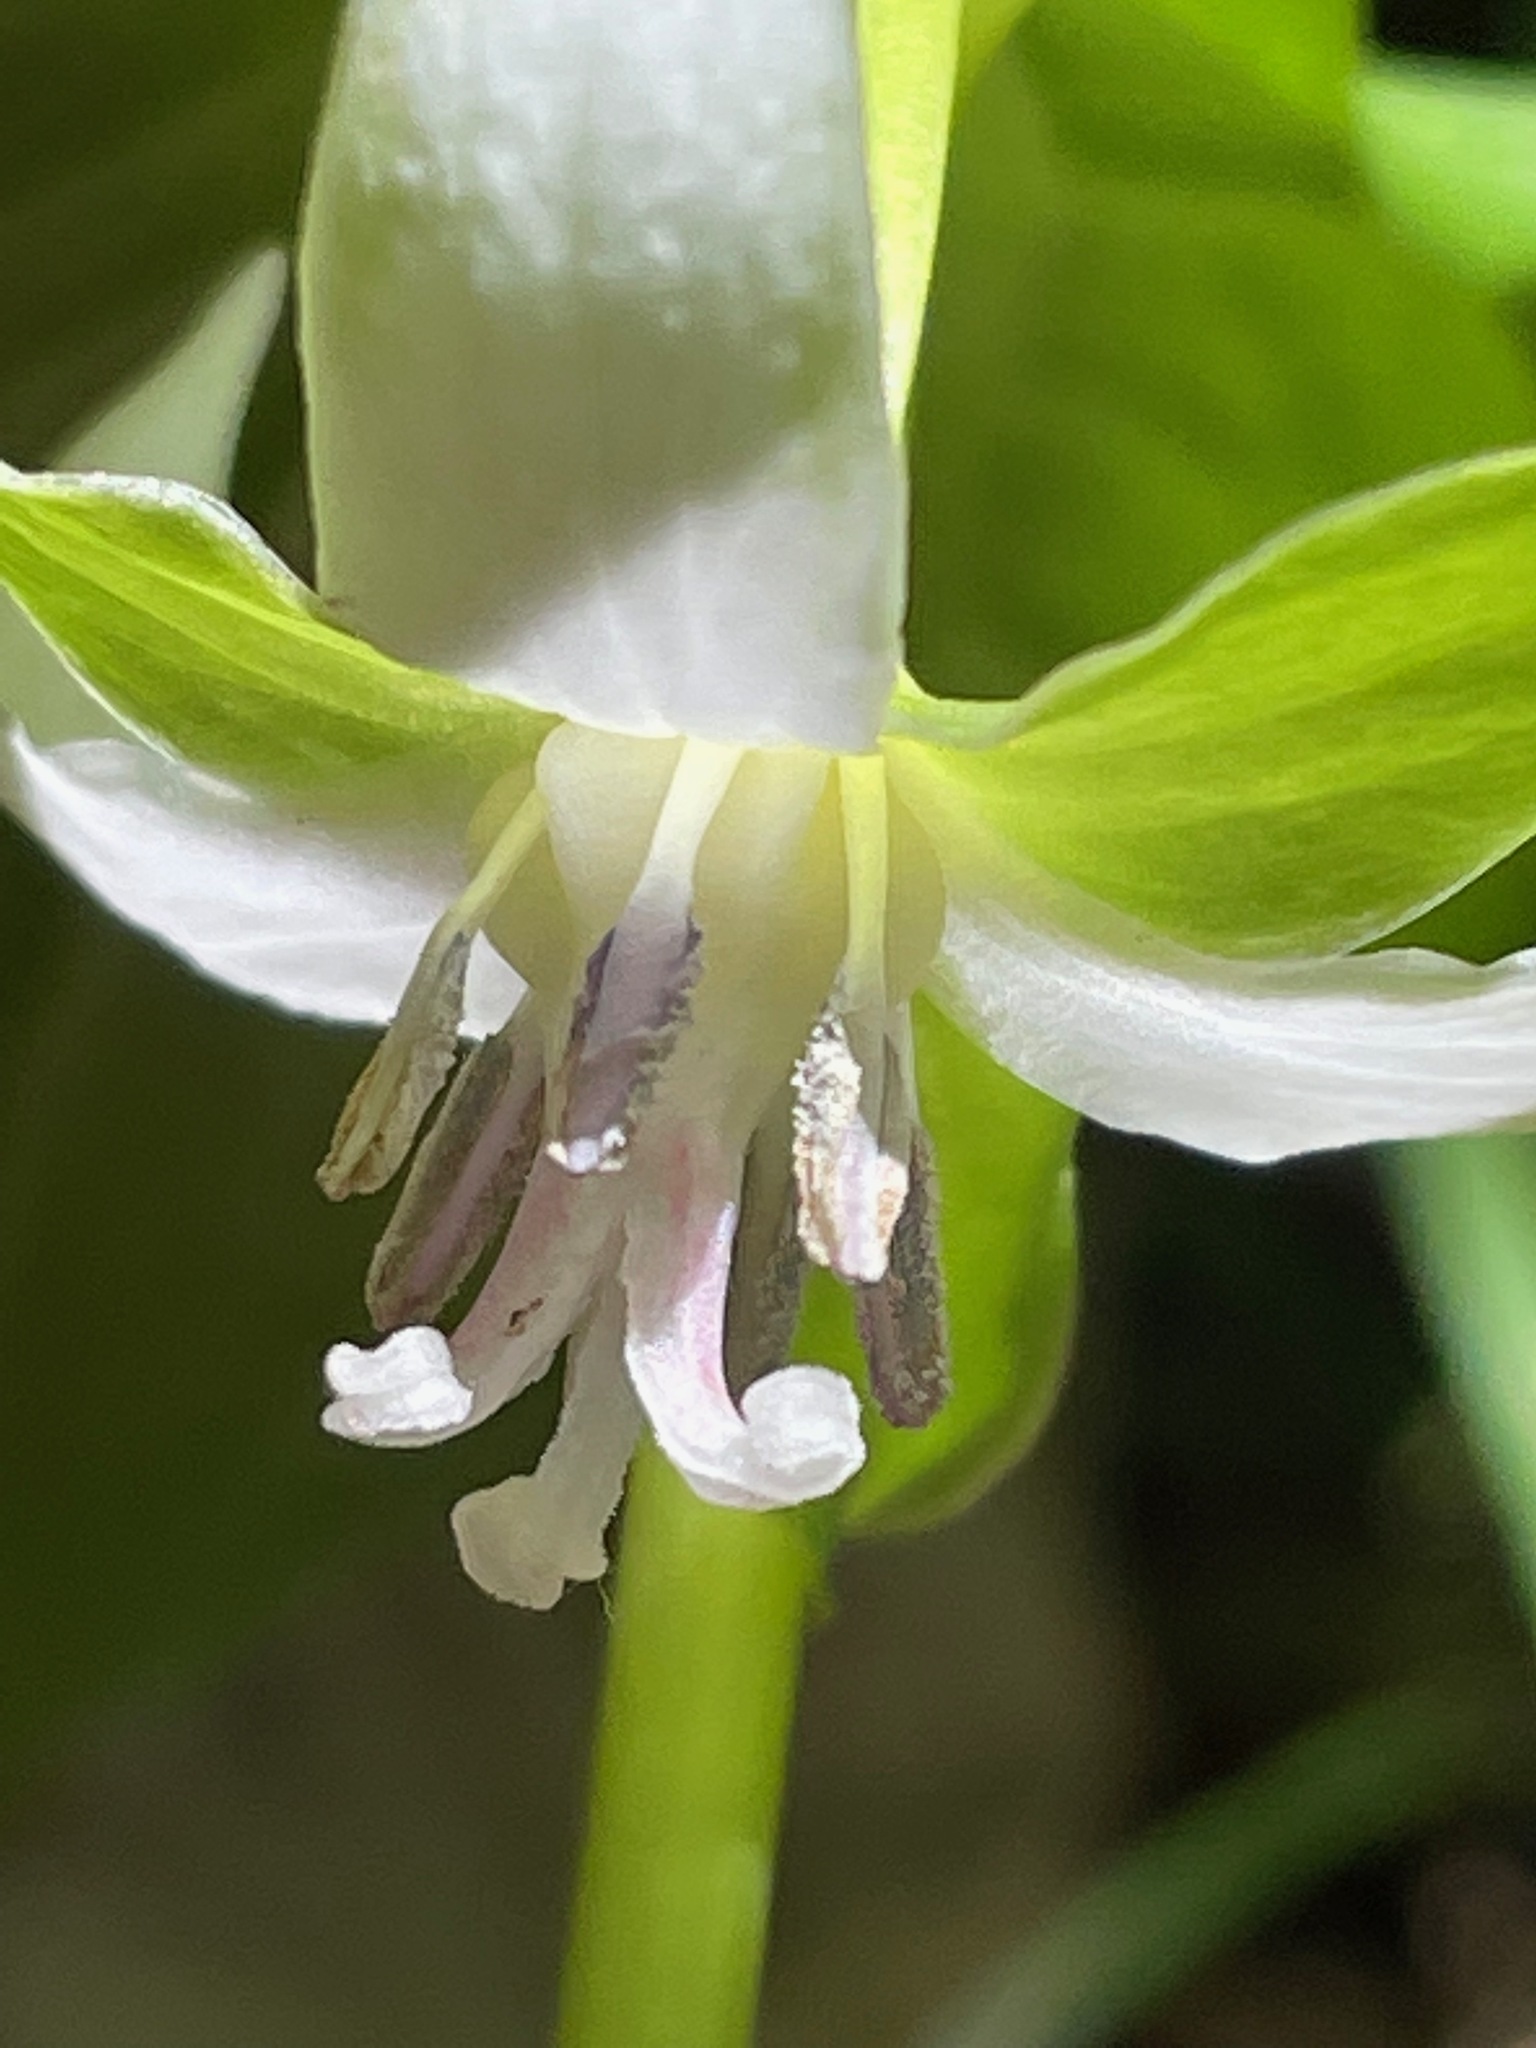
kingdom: Plantae
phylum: Tracheophyta
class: Liliopsida
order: Liliales
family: Melanthiaceae
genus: Trillium
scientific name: Trillium cernuum
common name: Nodding trillium
